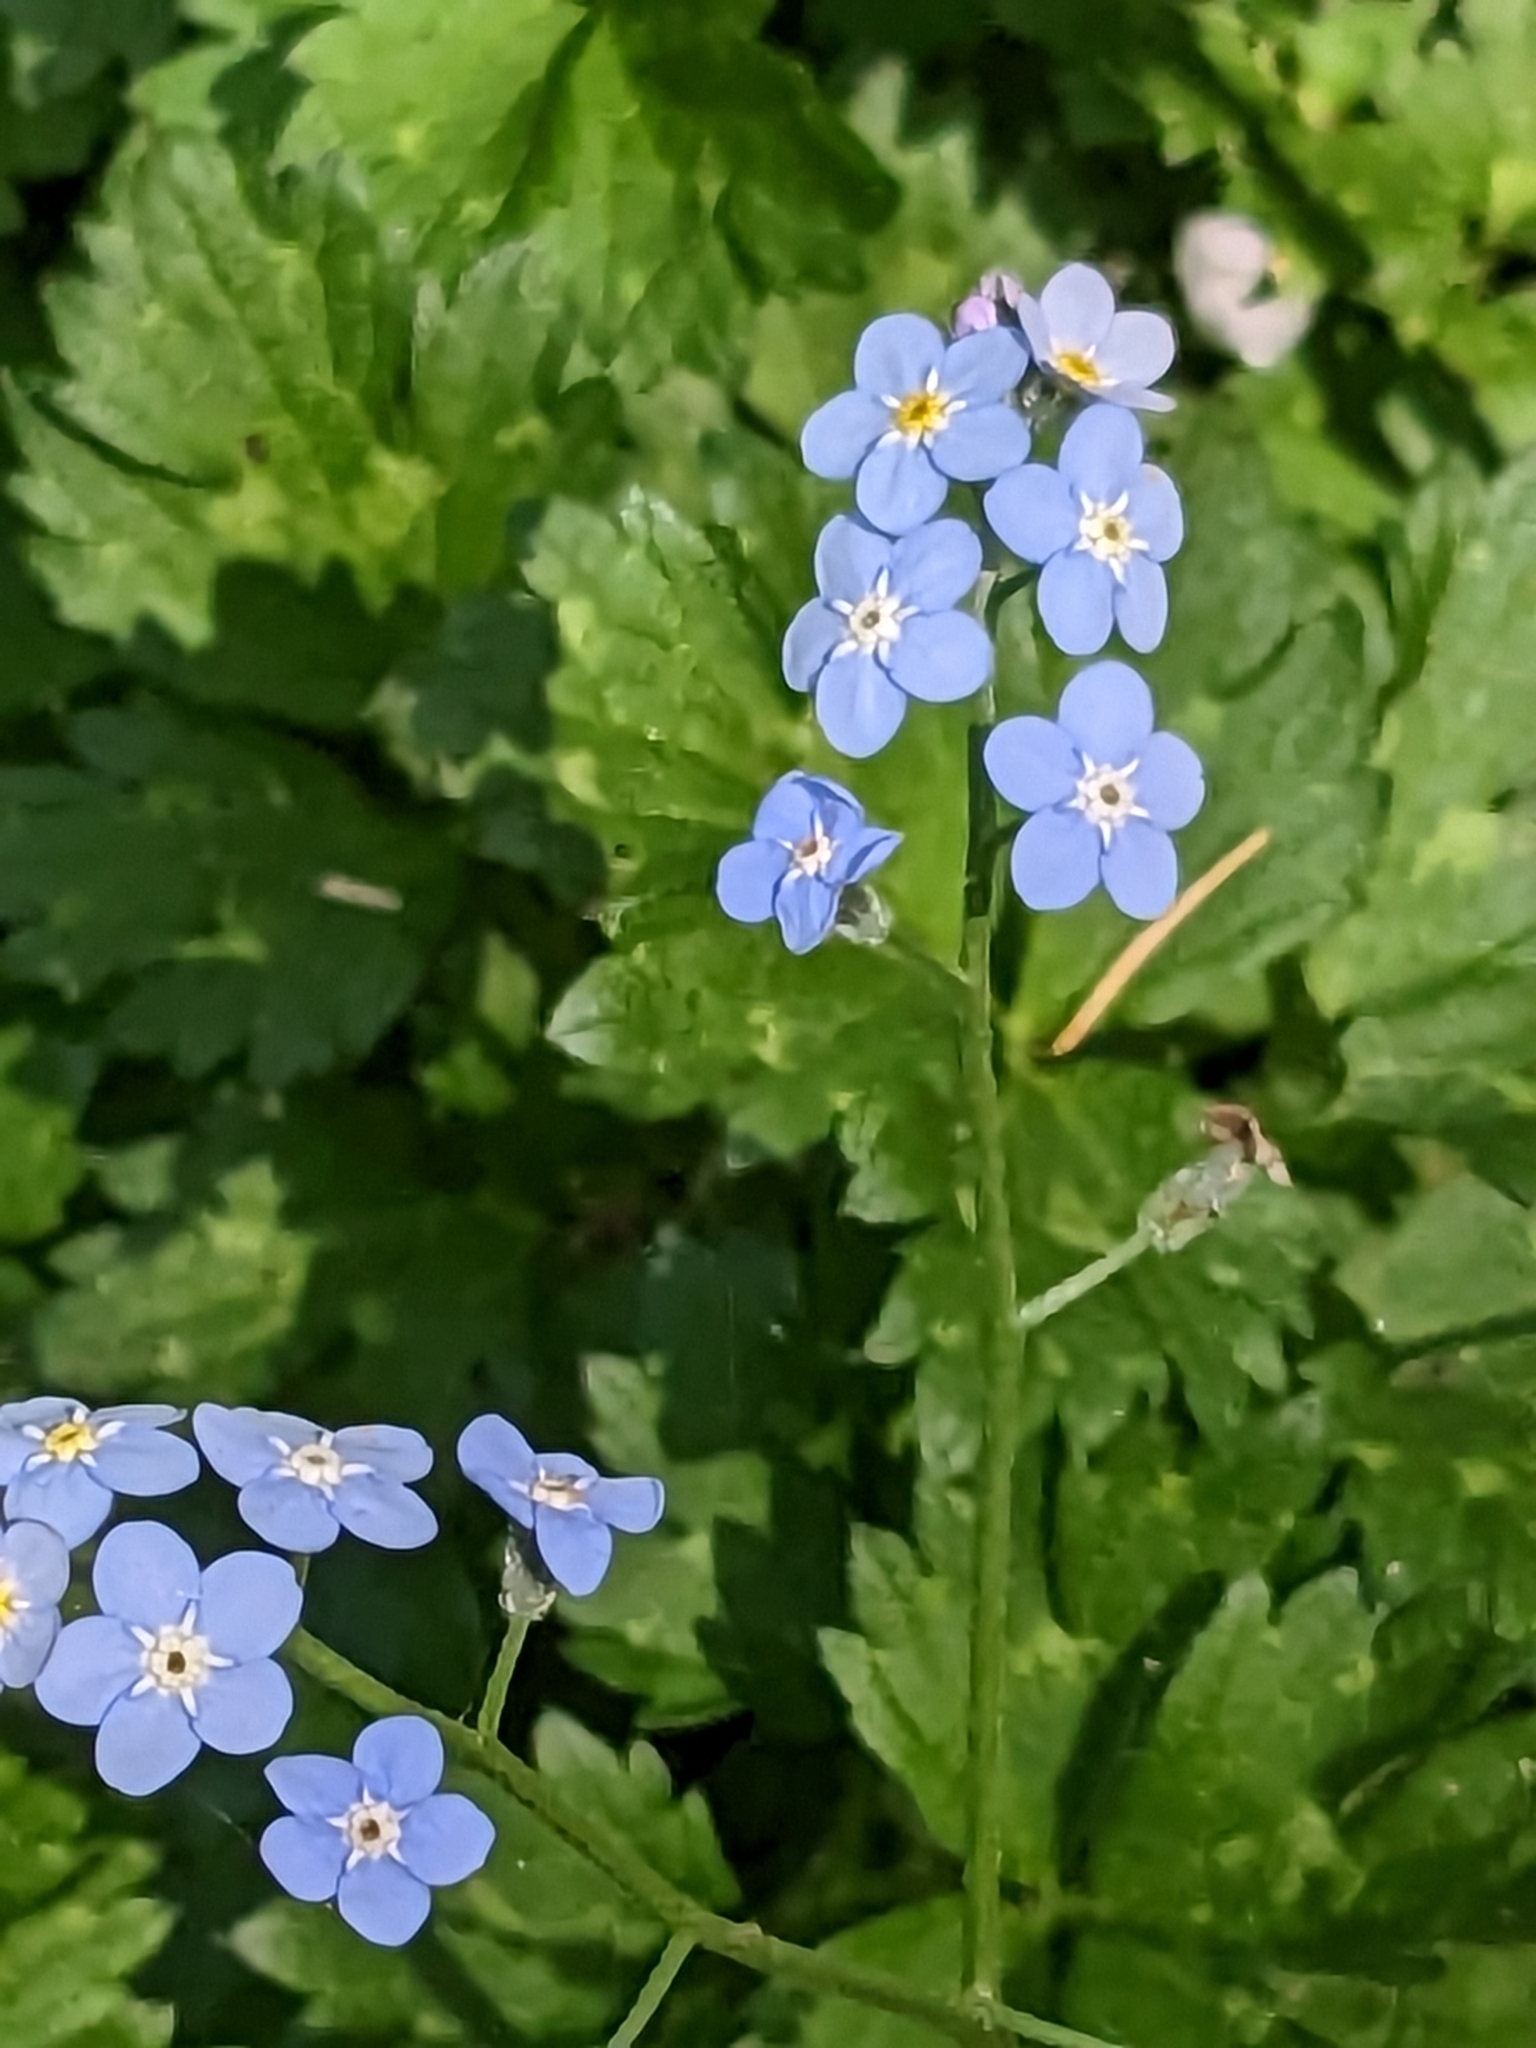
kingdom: Plantae
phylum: Tracheophyta
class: Magnoliopsida
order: Boraginales
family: Boraginaceae
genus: Myosotis
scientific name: Myosotis latifolia
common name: Broadleaf forget-me-not
